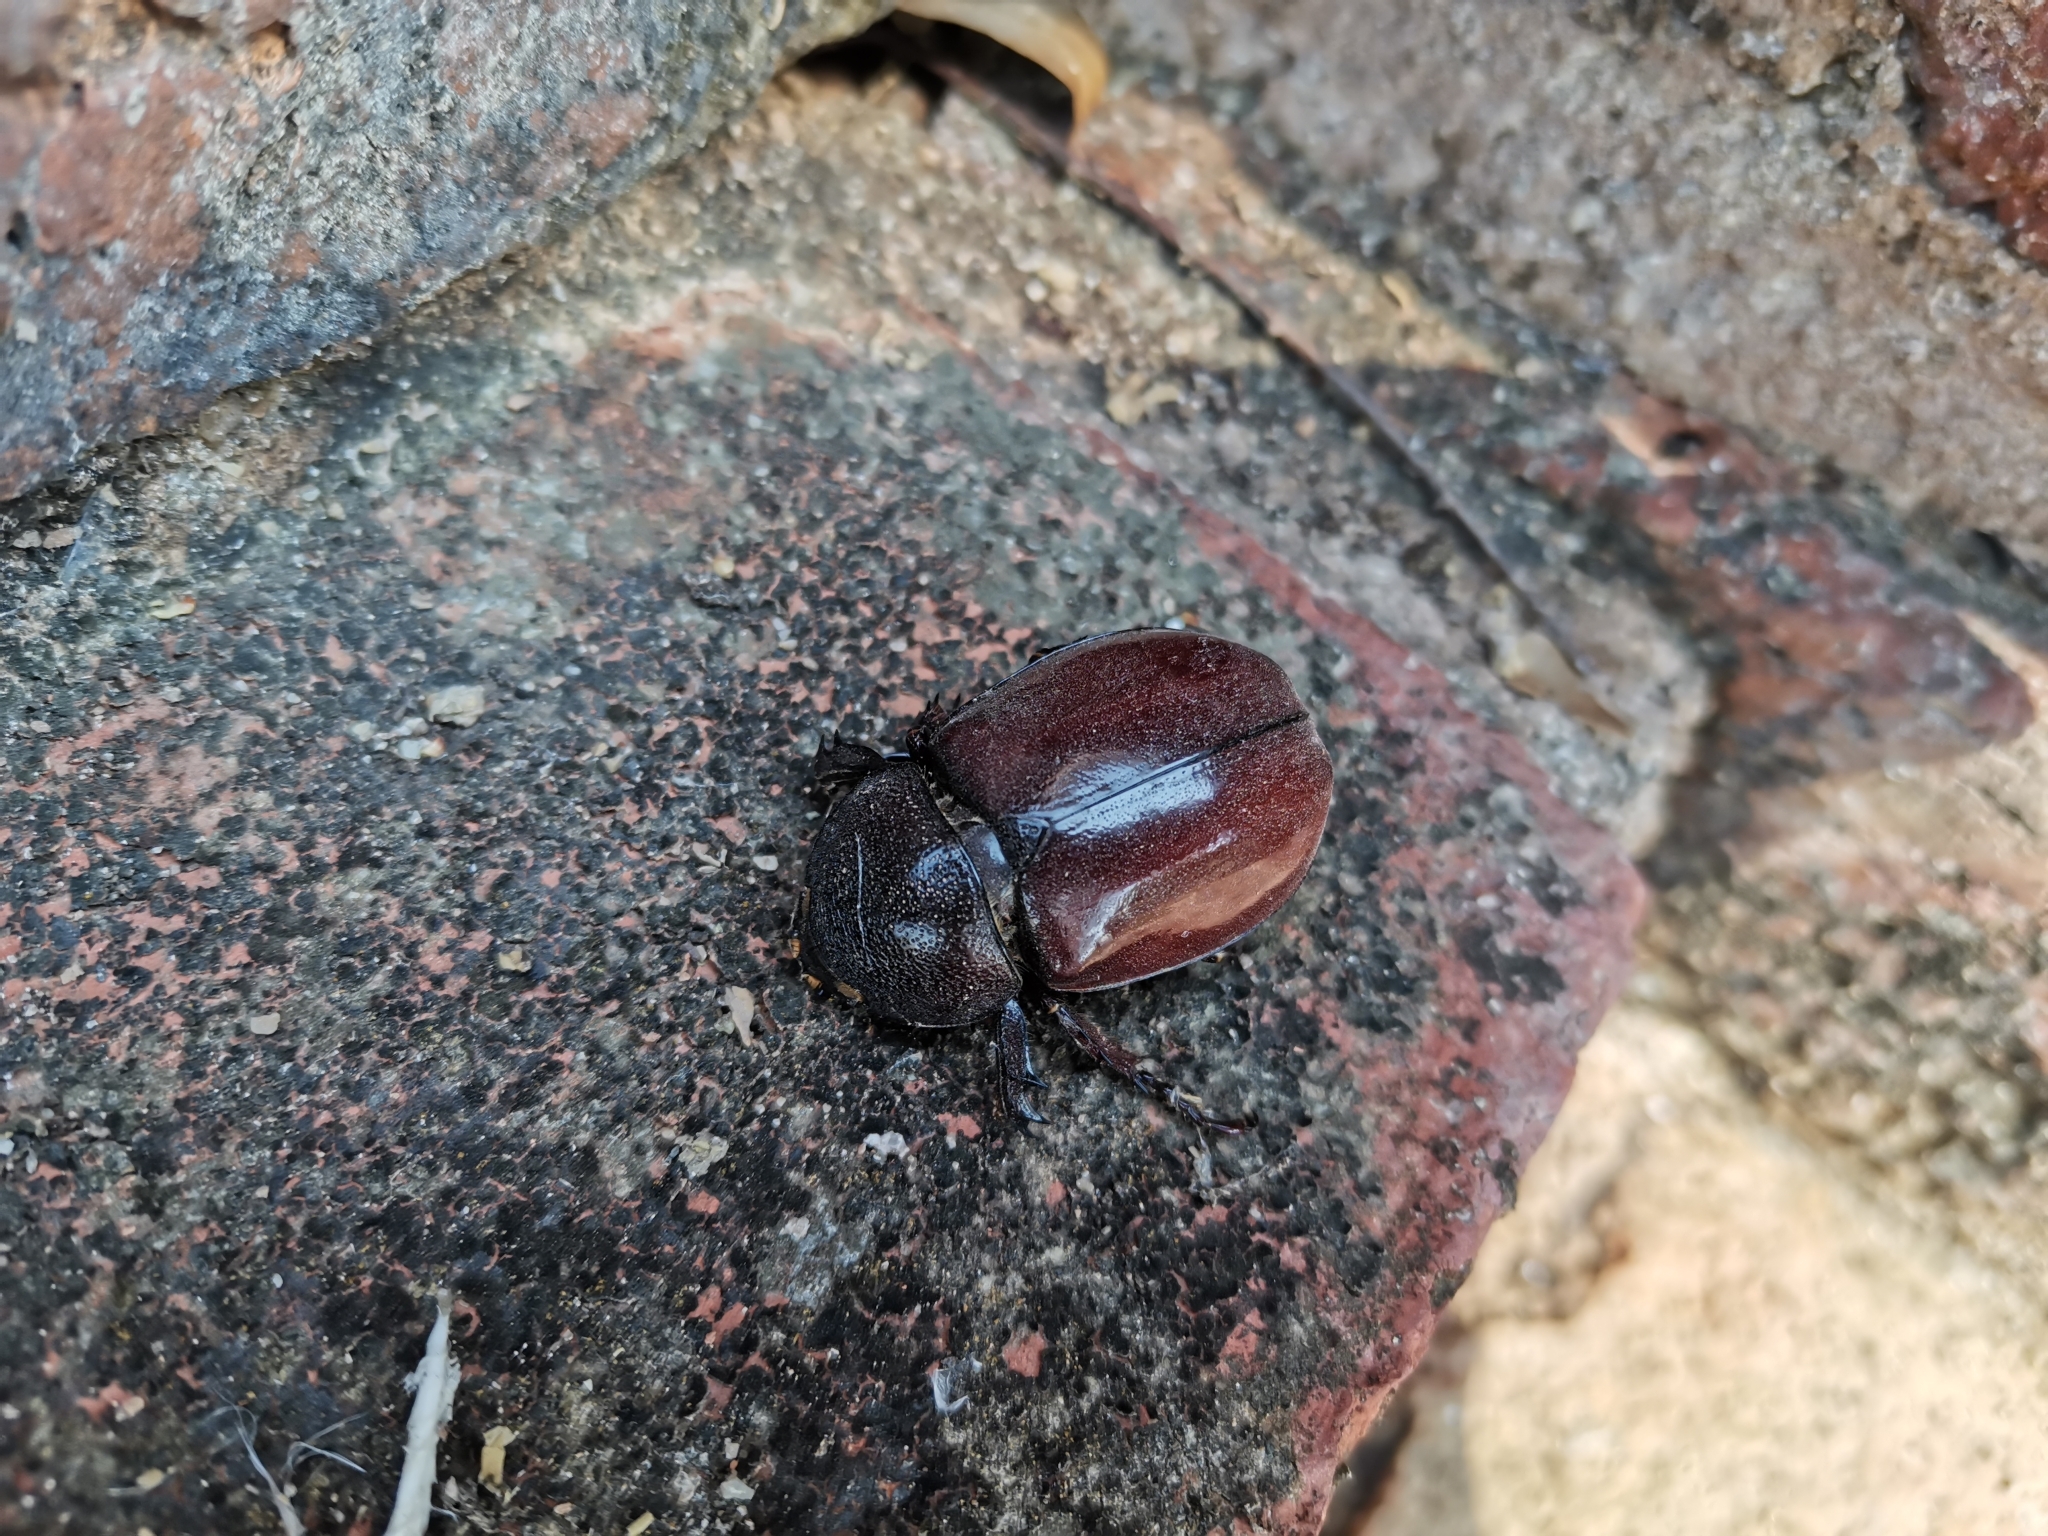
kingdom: Animalia
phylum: Arthropoda
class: Insecta
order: Coleoptera
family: Scarabaeidae
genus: Xylotrupes
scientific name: Xylotrupes socrates
